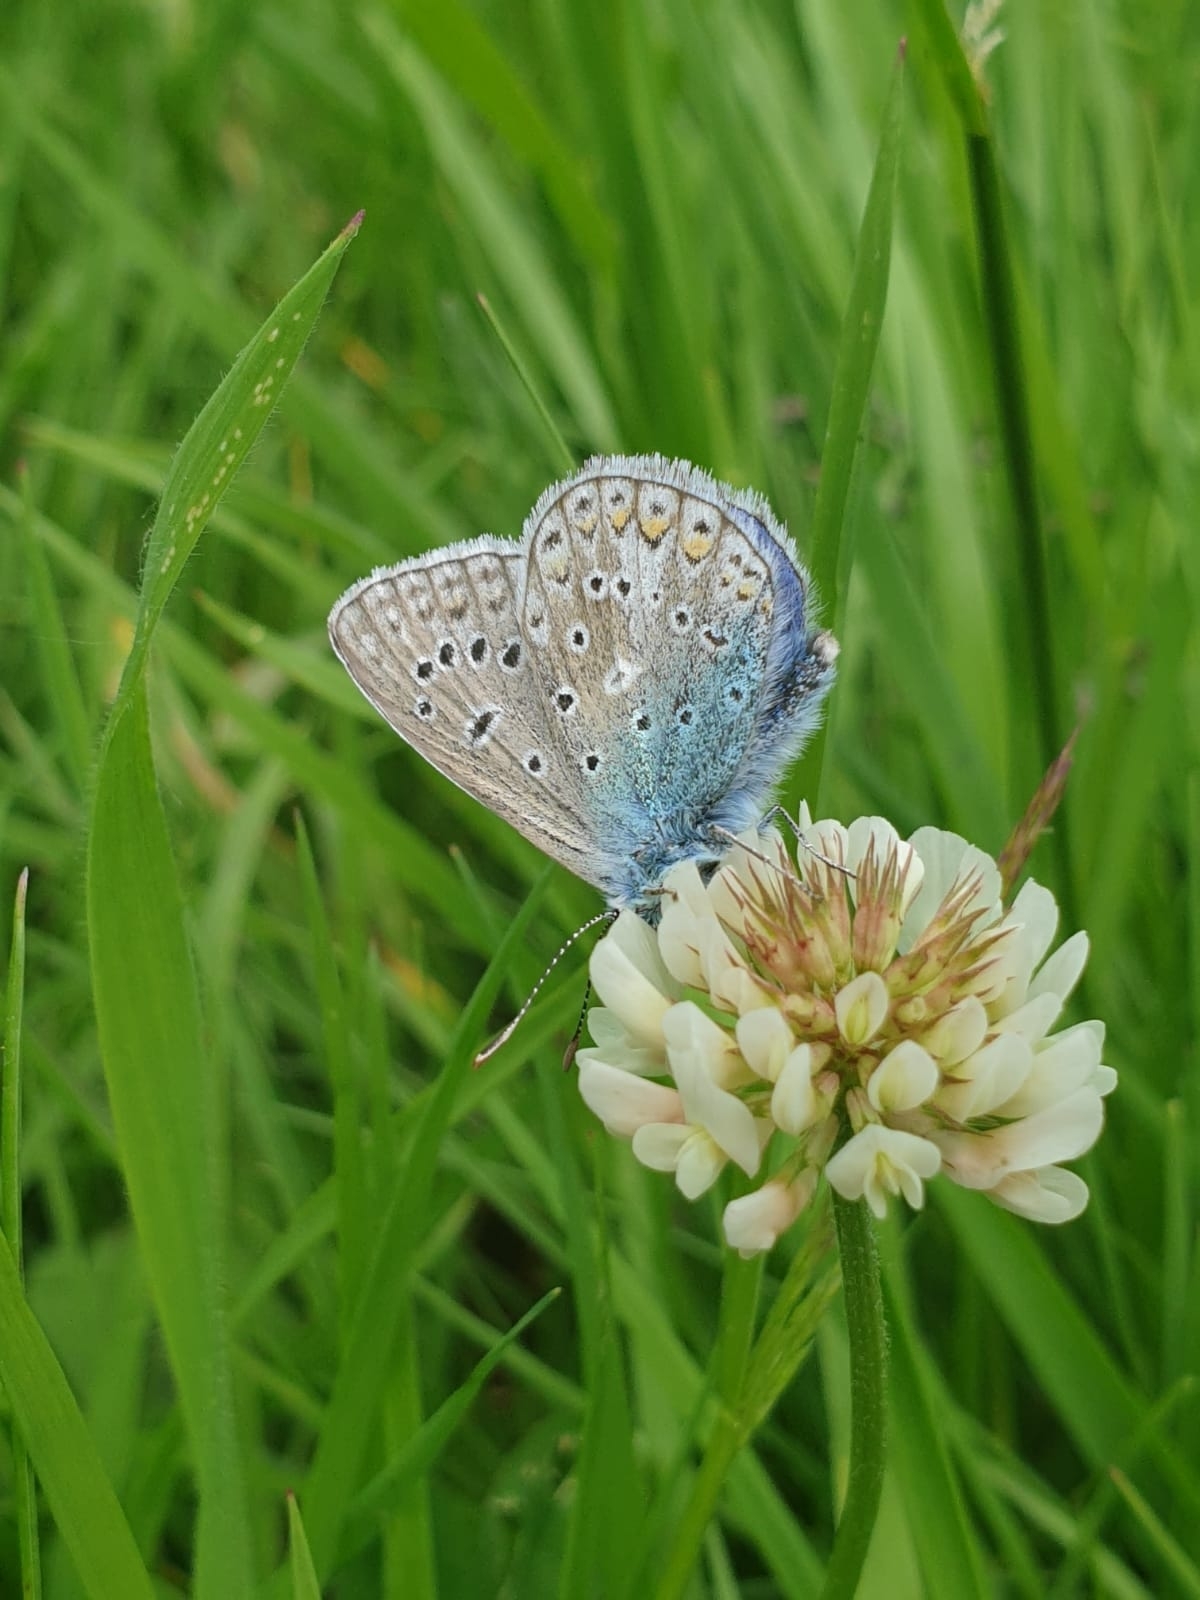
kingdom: Animalia
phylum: Arthropoda
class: Insecta
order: Lepidoptera
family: Lycaenidae
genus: Polyommatus
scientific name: Polyommatus icarus
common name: Common blue
